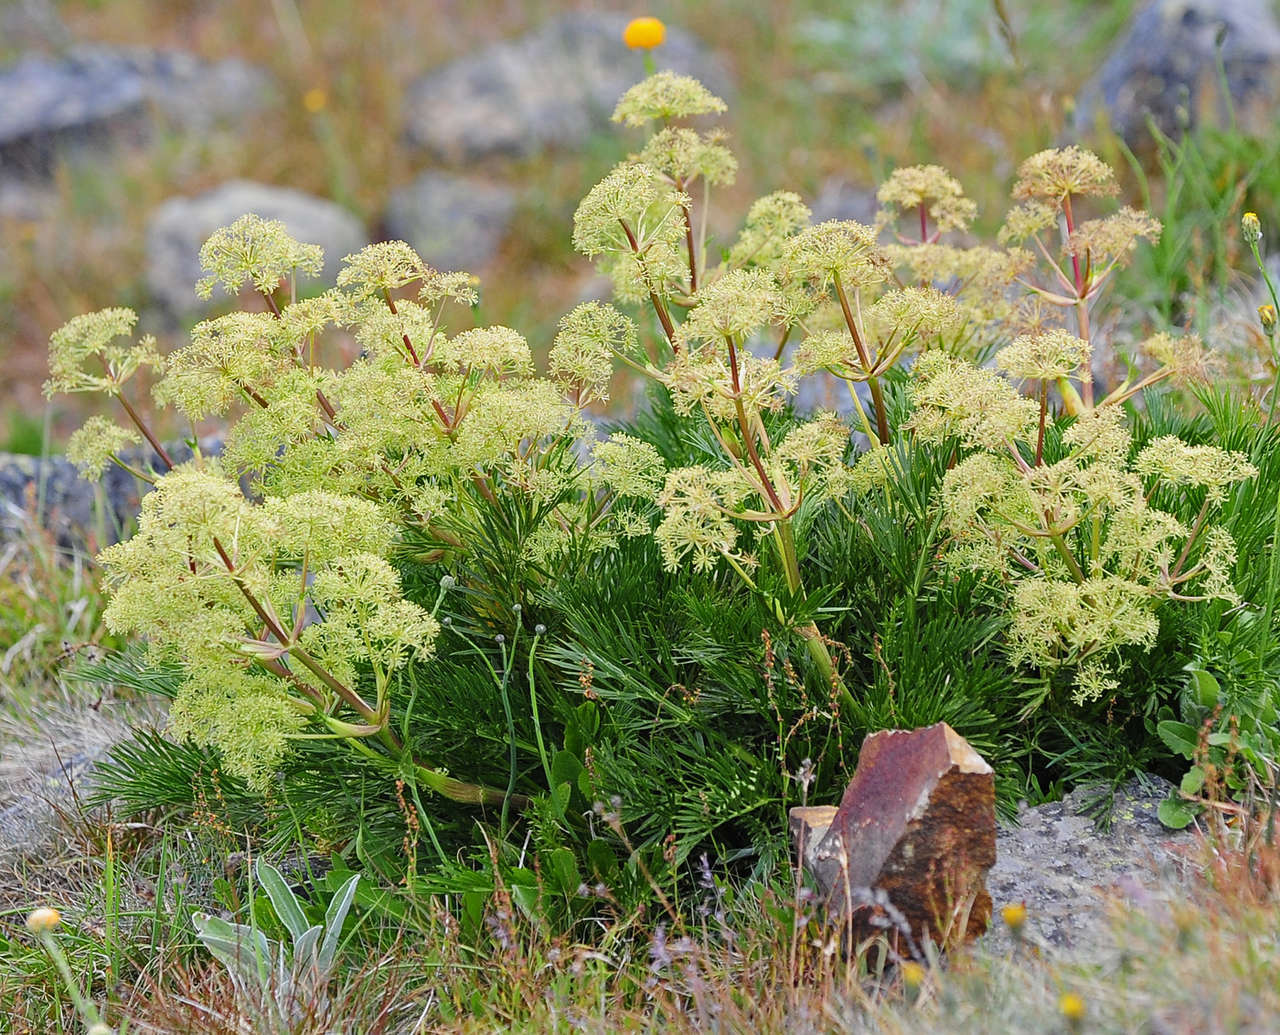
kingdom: Plantae
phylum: Tracheophyta
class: Magnoliopsida
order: Apiales
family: Apiaceae
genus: Aciphylla
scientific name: Aciphylla glacialis
